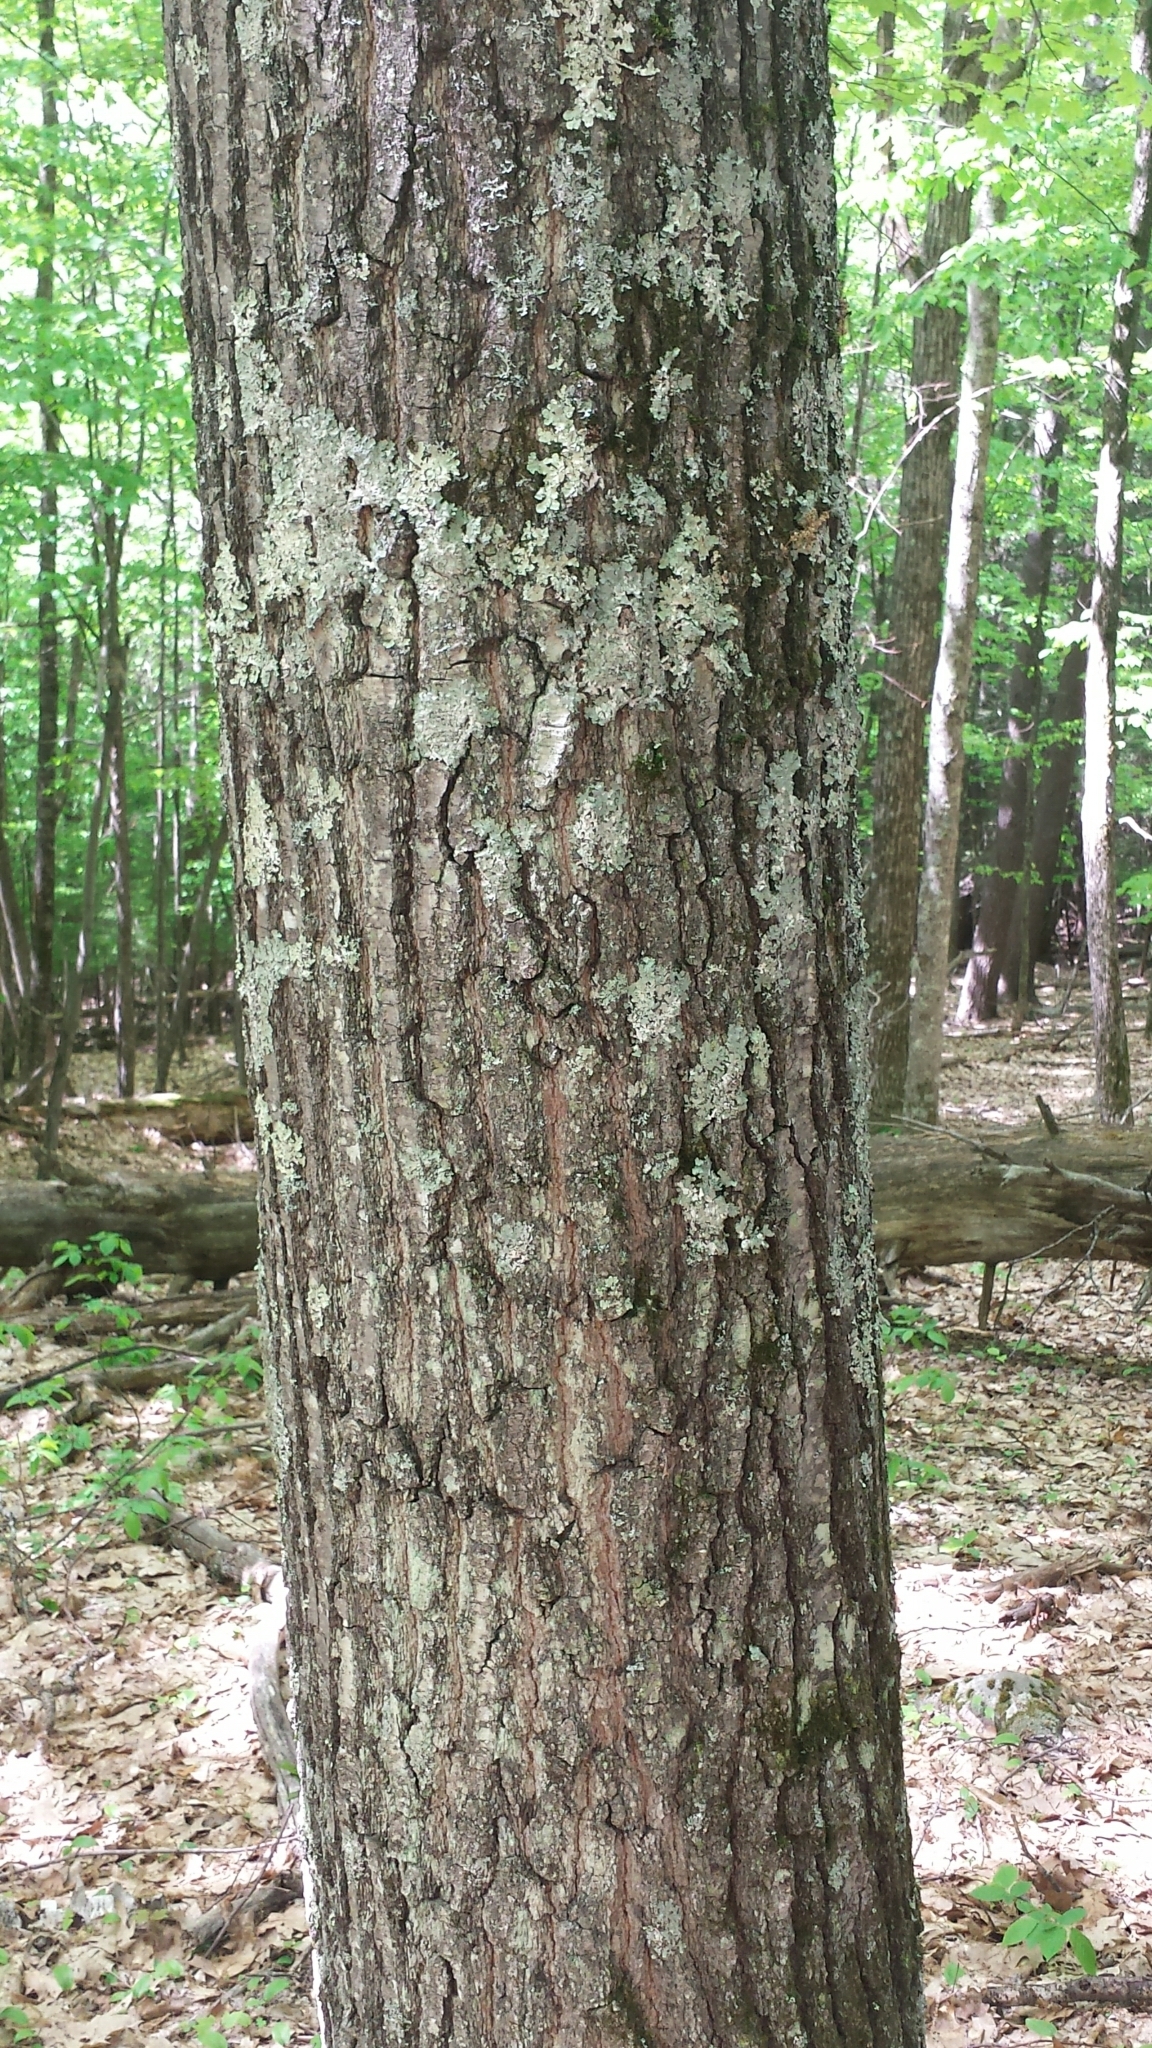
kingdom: Plantae
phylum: Tracheophyta
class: Magnoliopsida
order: Fagales
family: Fagaceae
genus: Quercus
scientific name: Quercus rubra
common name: Red oak
